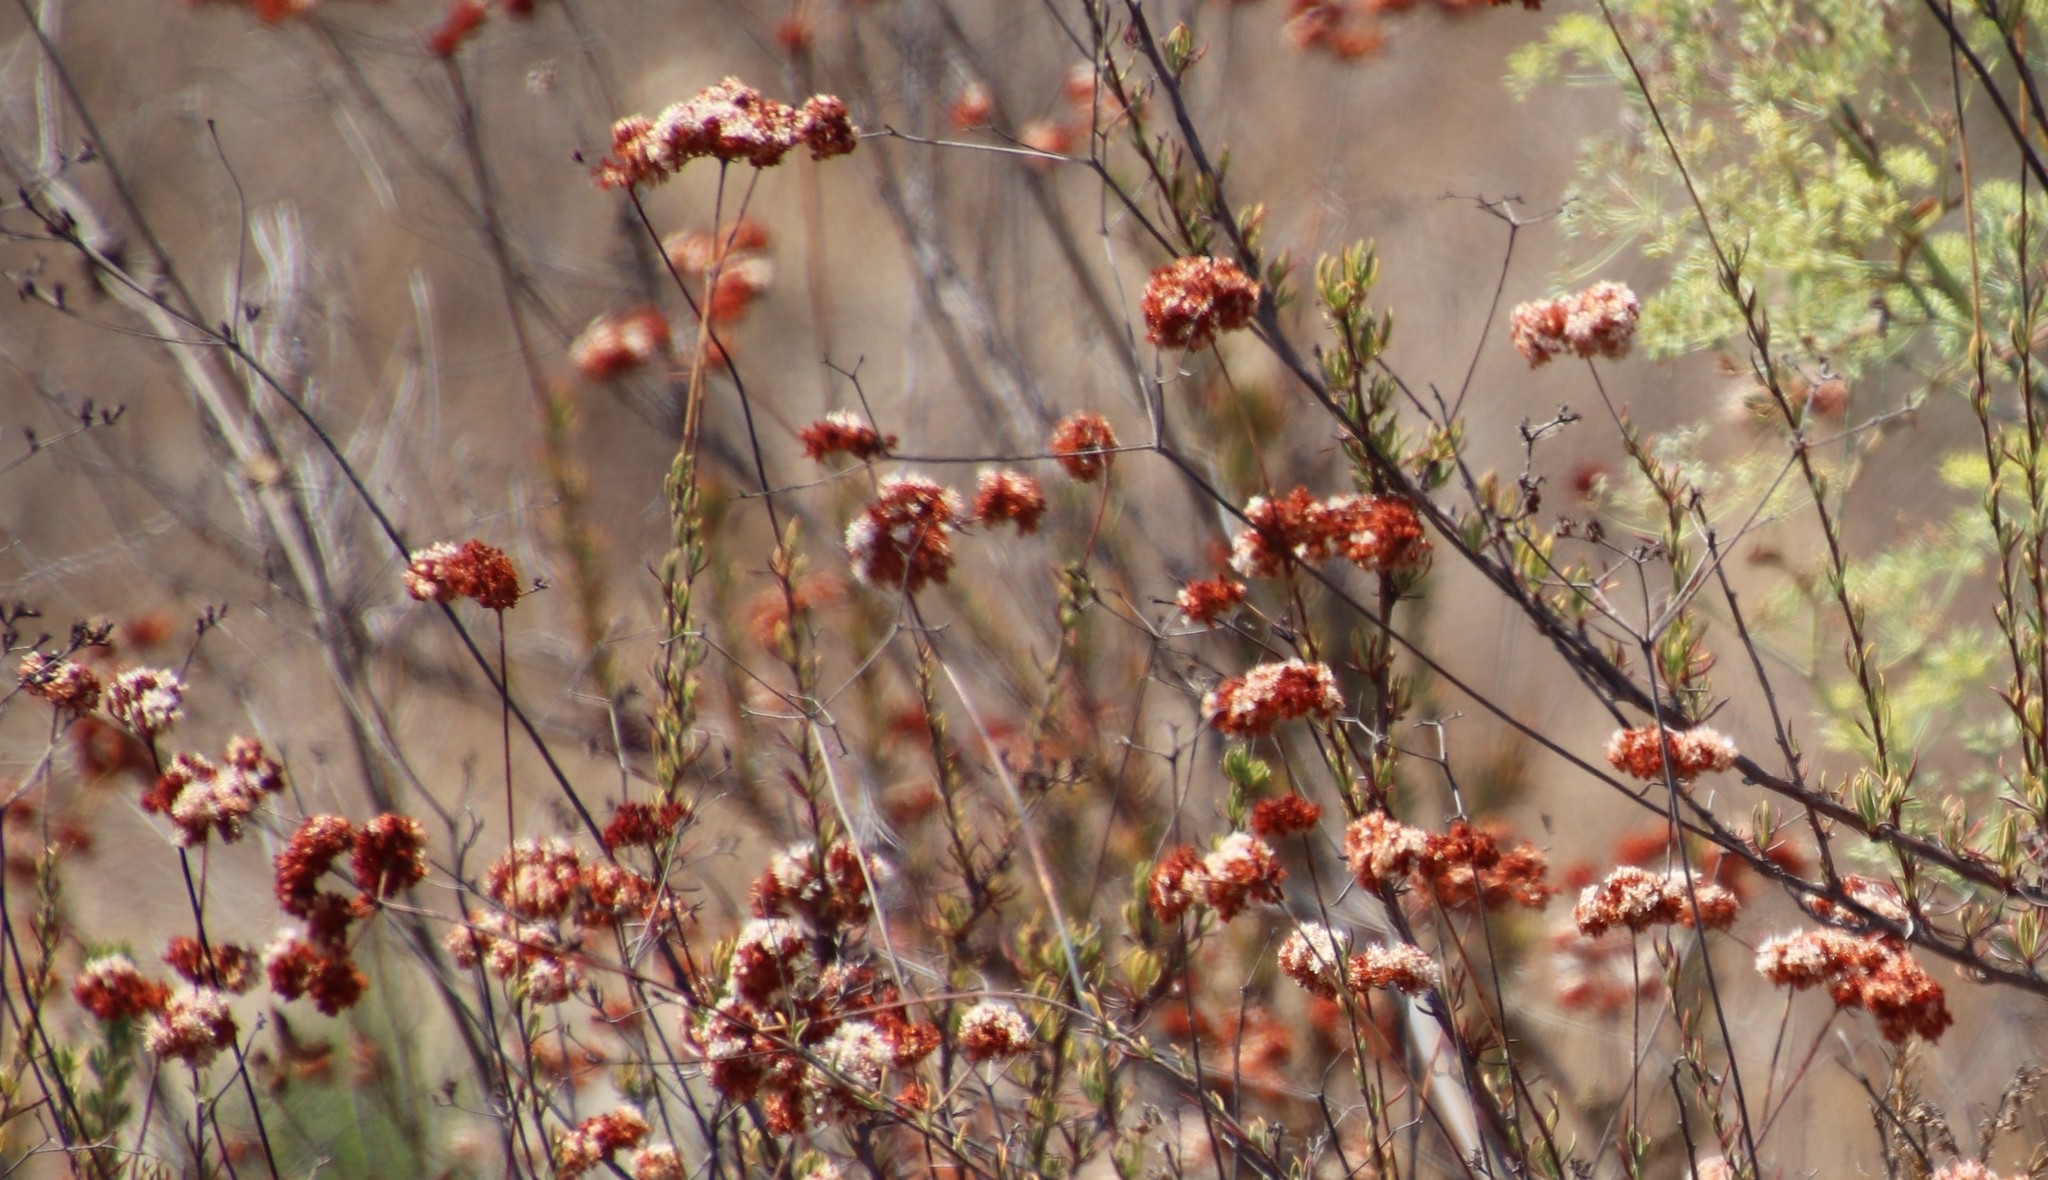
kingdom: Plantae
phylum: Tracheophyta
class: Magnoliopsida
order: Caryophyllales
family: Polygonaceae
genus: Eriogonum
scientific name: Eriogonum fasciculatum
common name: California wild buckwheat
